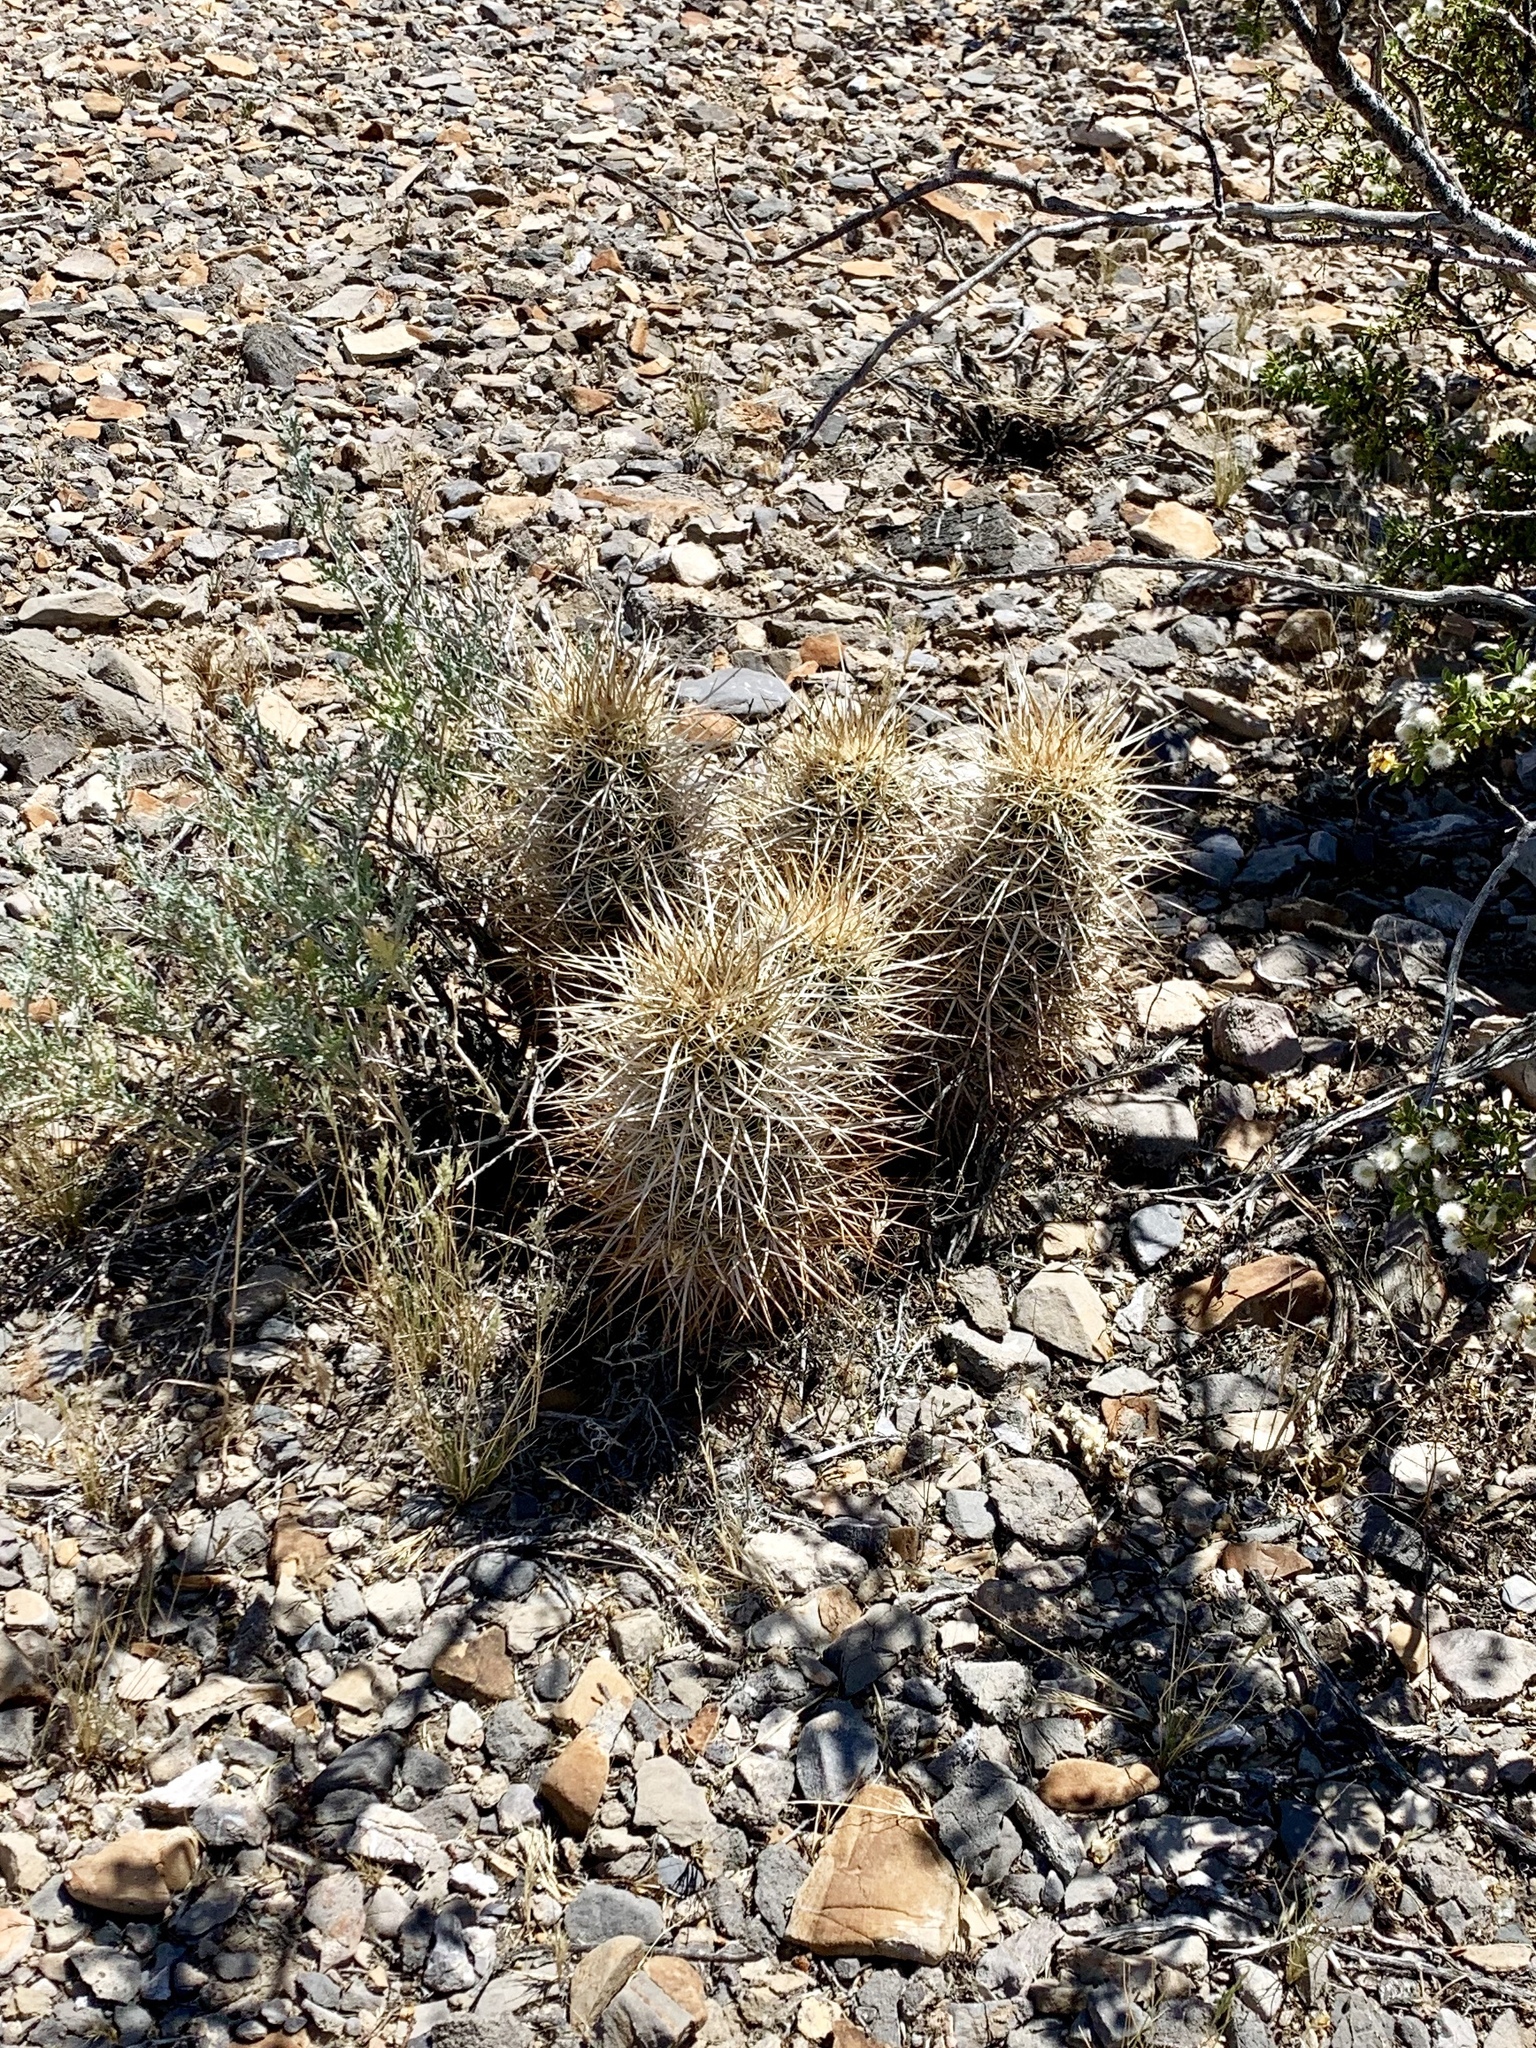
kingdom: Plantae
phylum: Tracheophyta
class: Magnoliopsida
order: Caryophyllales
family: Cactaceae
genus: Echinocereus
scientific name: Echinocereus engelmannii
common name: Engelmann's hedgehog cactus
